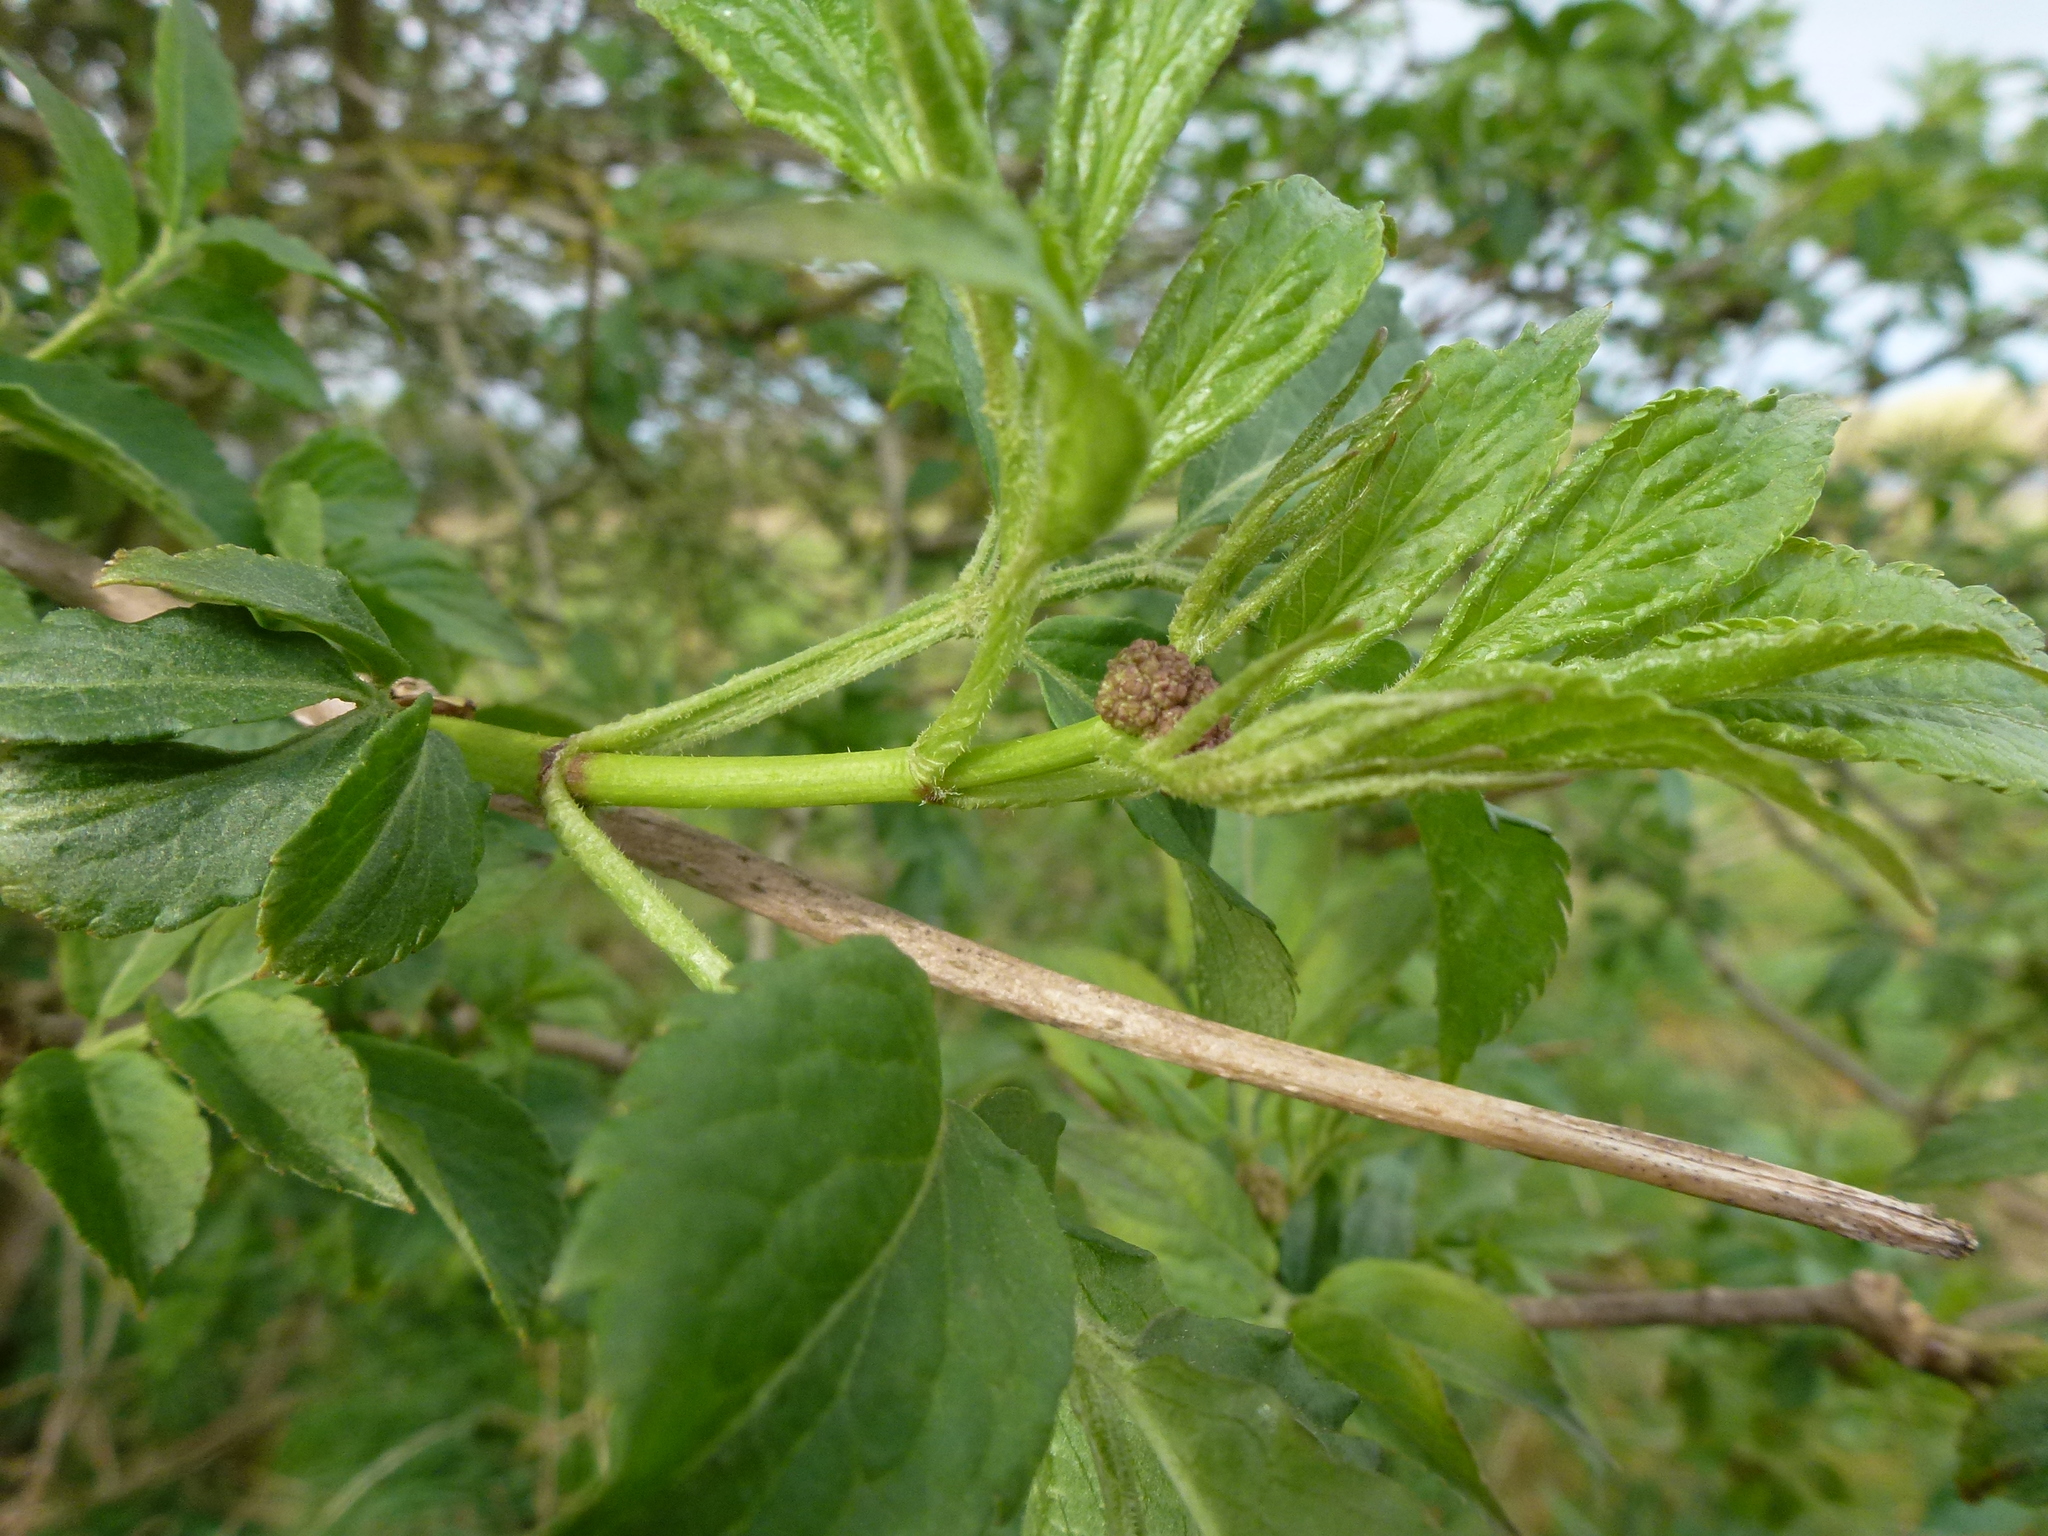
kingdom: Plantae
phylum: Tracheophyta
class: Magnoliopsida
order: Dipsacales
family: Viburnaceae
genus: Sambucus
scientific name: Sambucus nigra
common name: Elder
